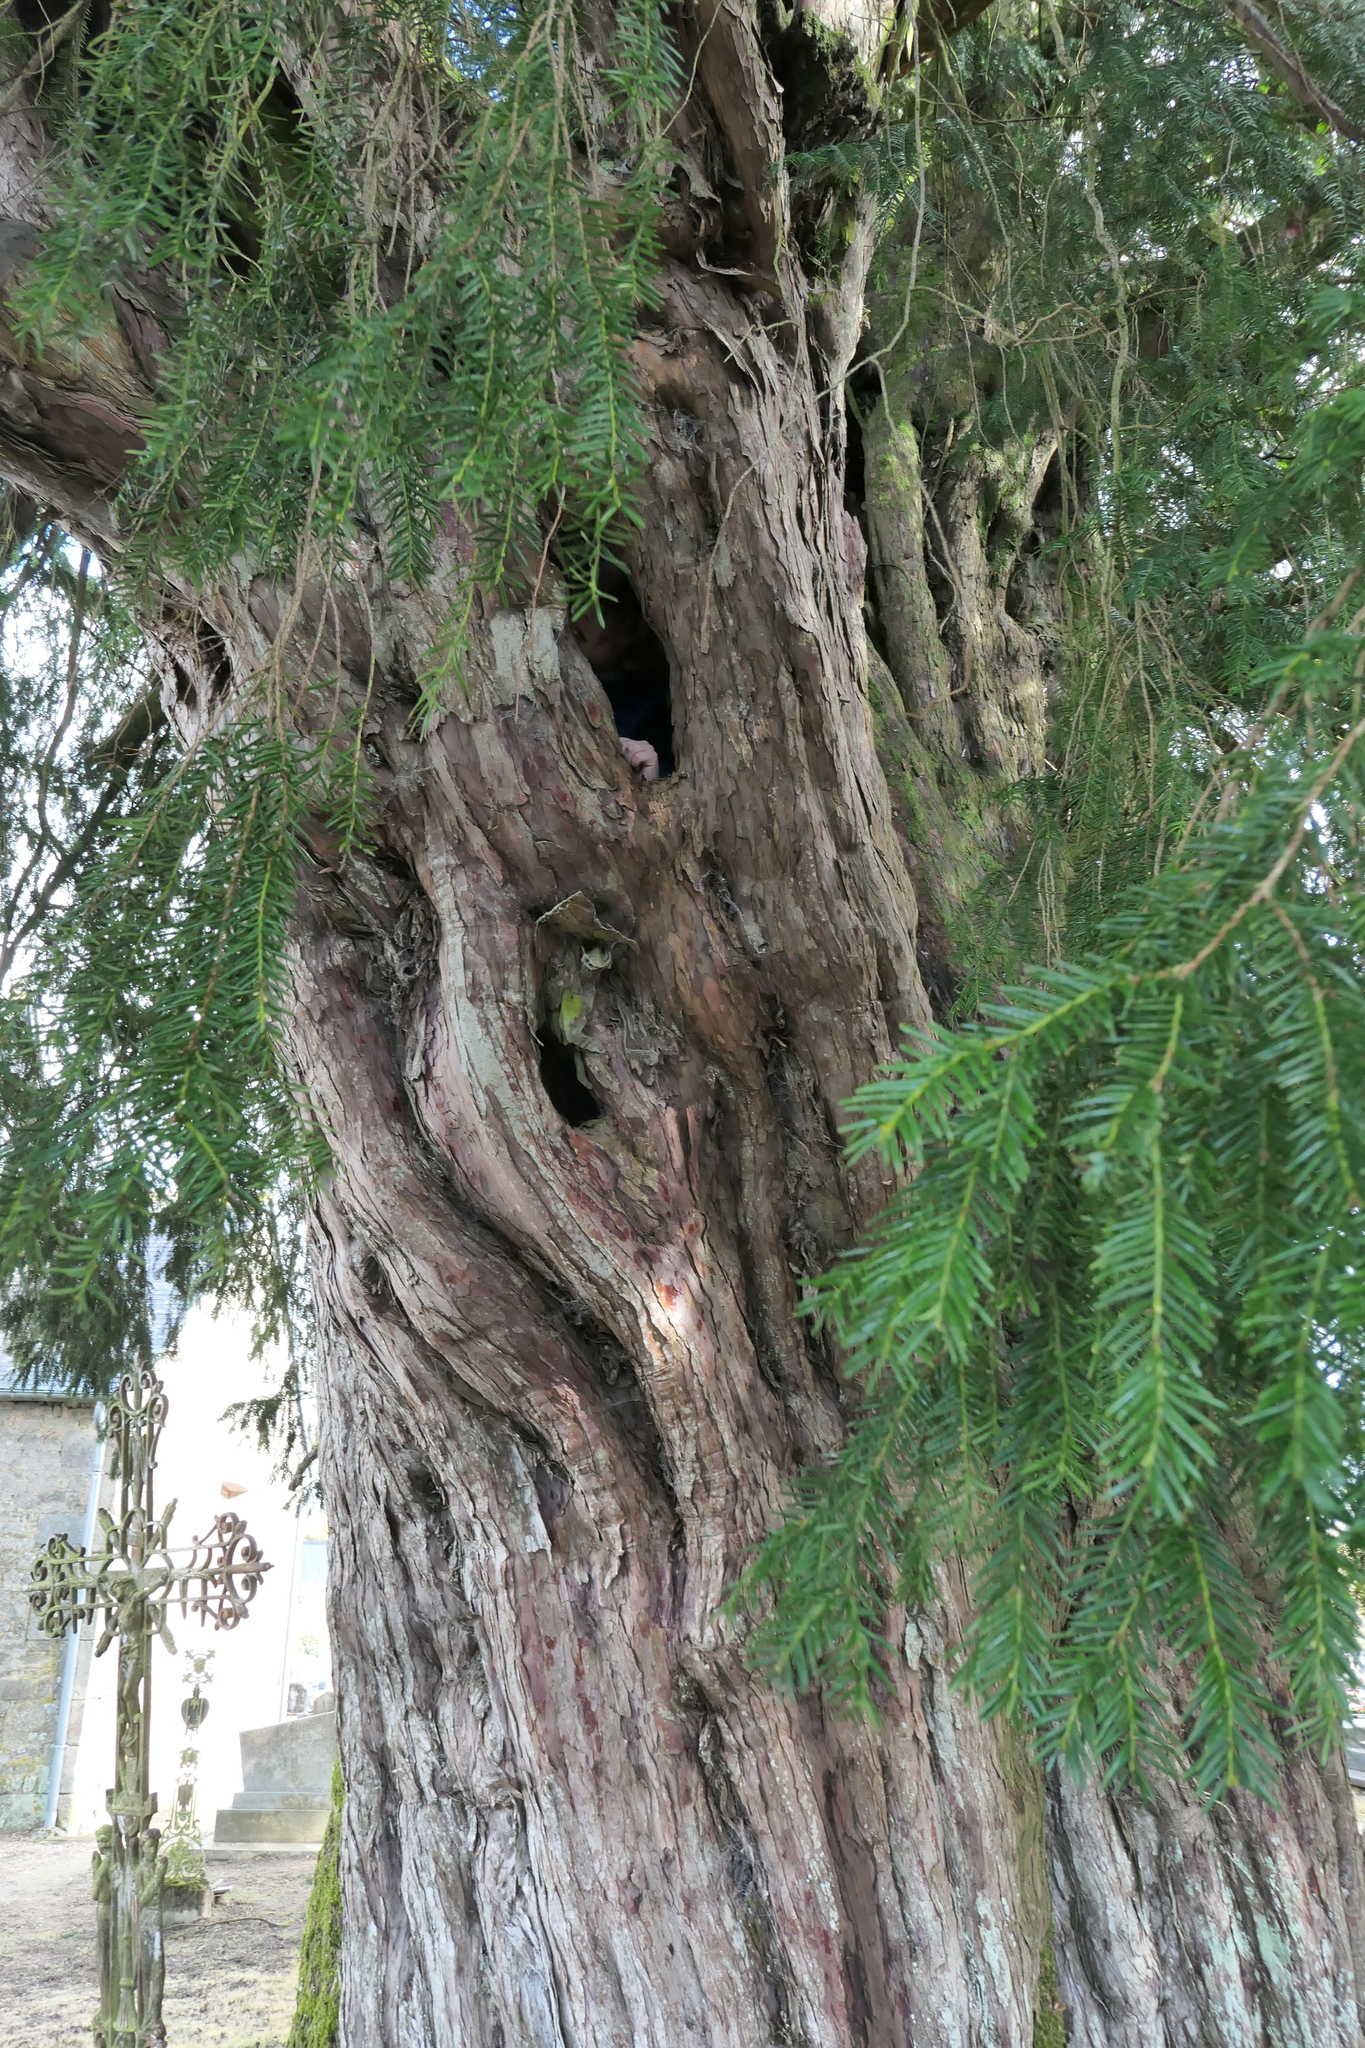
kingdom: Plantae
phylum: Tracheophyta
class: Pinopsida
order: Pinales
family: Taxaceae
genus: Taxus
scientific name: Taxus baccata
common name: Yew
